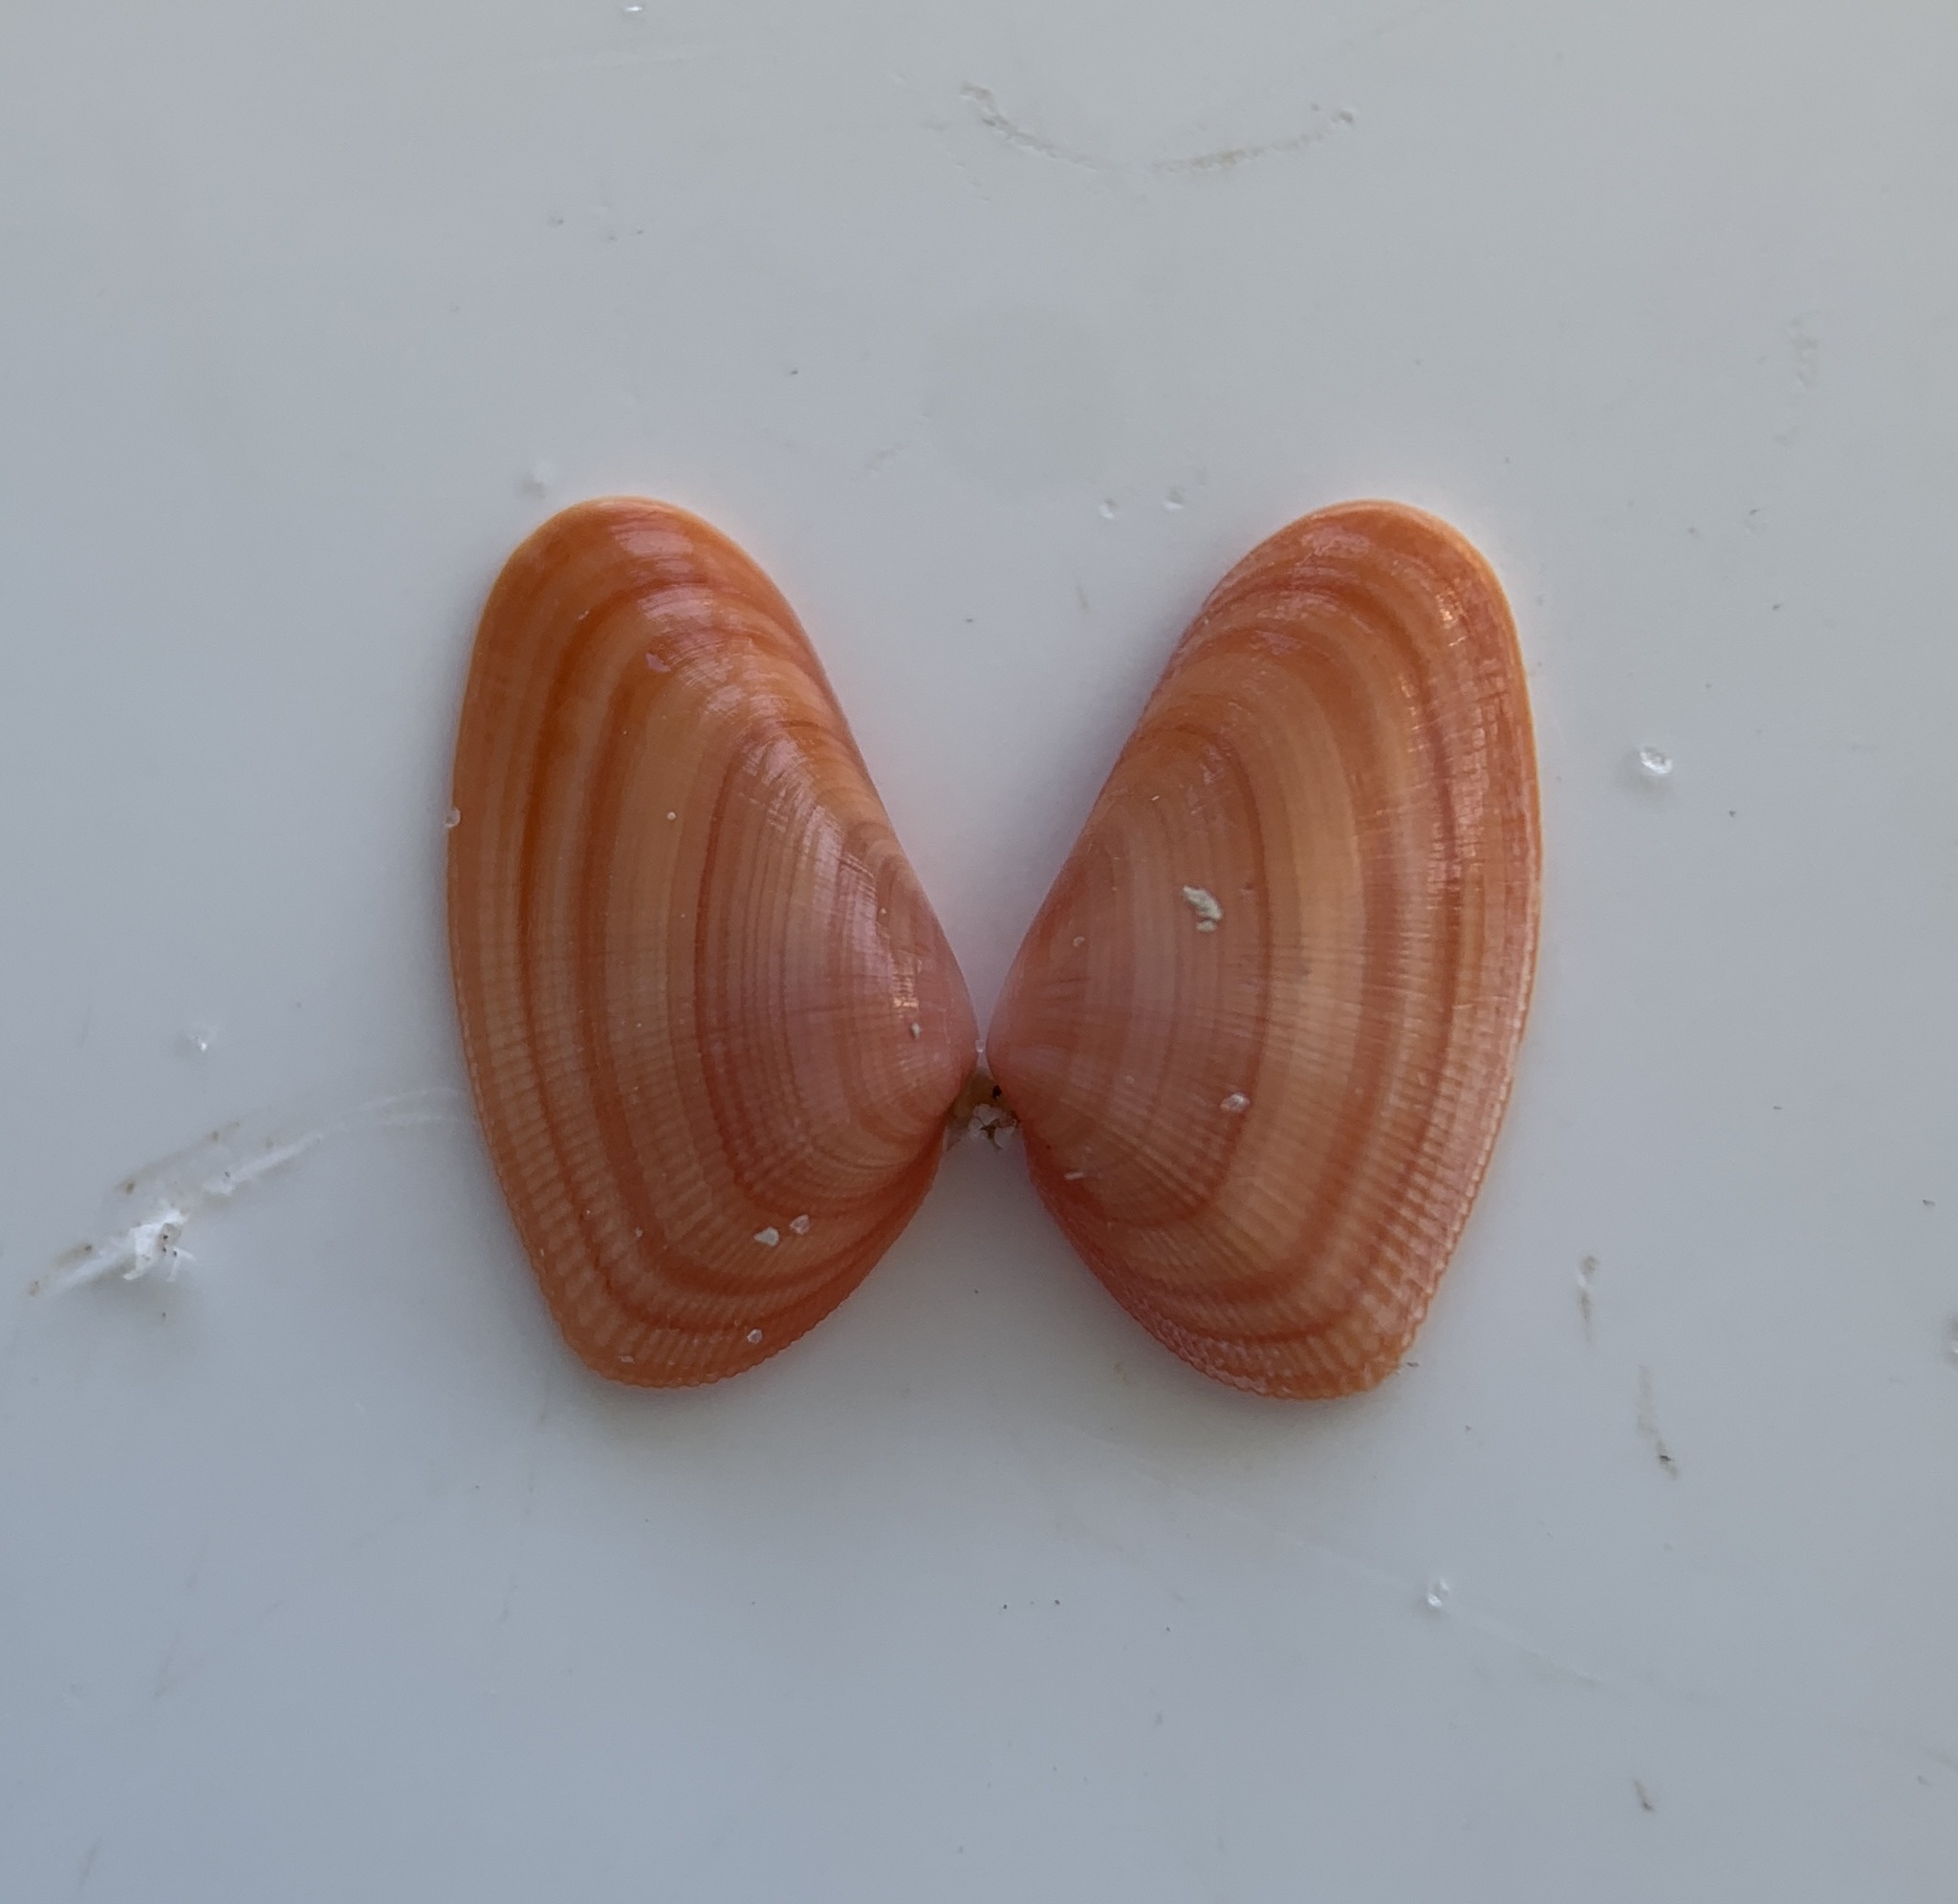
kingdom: Animalia
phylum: Mollusca
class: Bivalvia
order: Cardiida
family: Donacidae
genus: Donax
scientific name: Donax variabilis
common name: Butterfly shell
